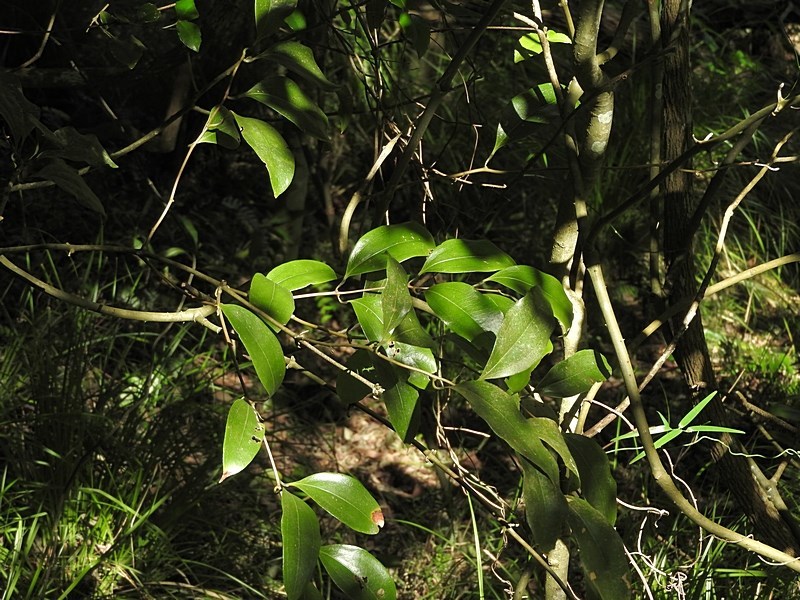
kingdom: Plantae
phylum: Tracheophyta
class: Liliopsida
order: Liliales
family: Ripogonaceae
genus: Ripogonum
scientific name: Ripogonum album
